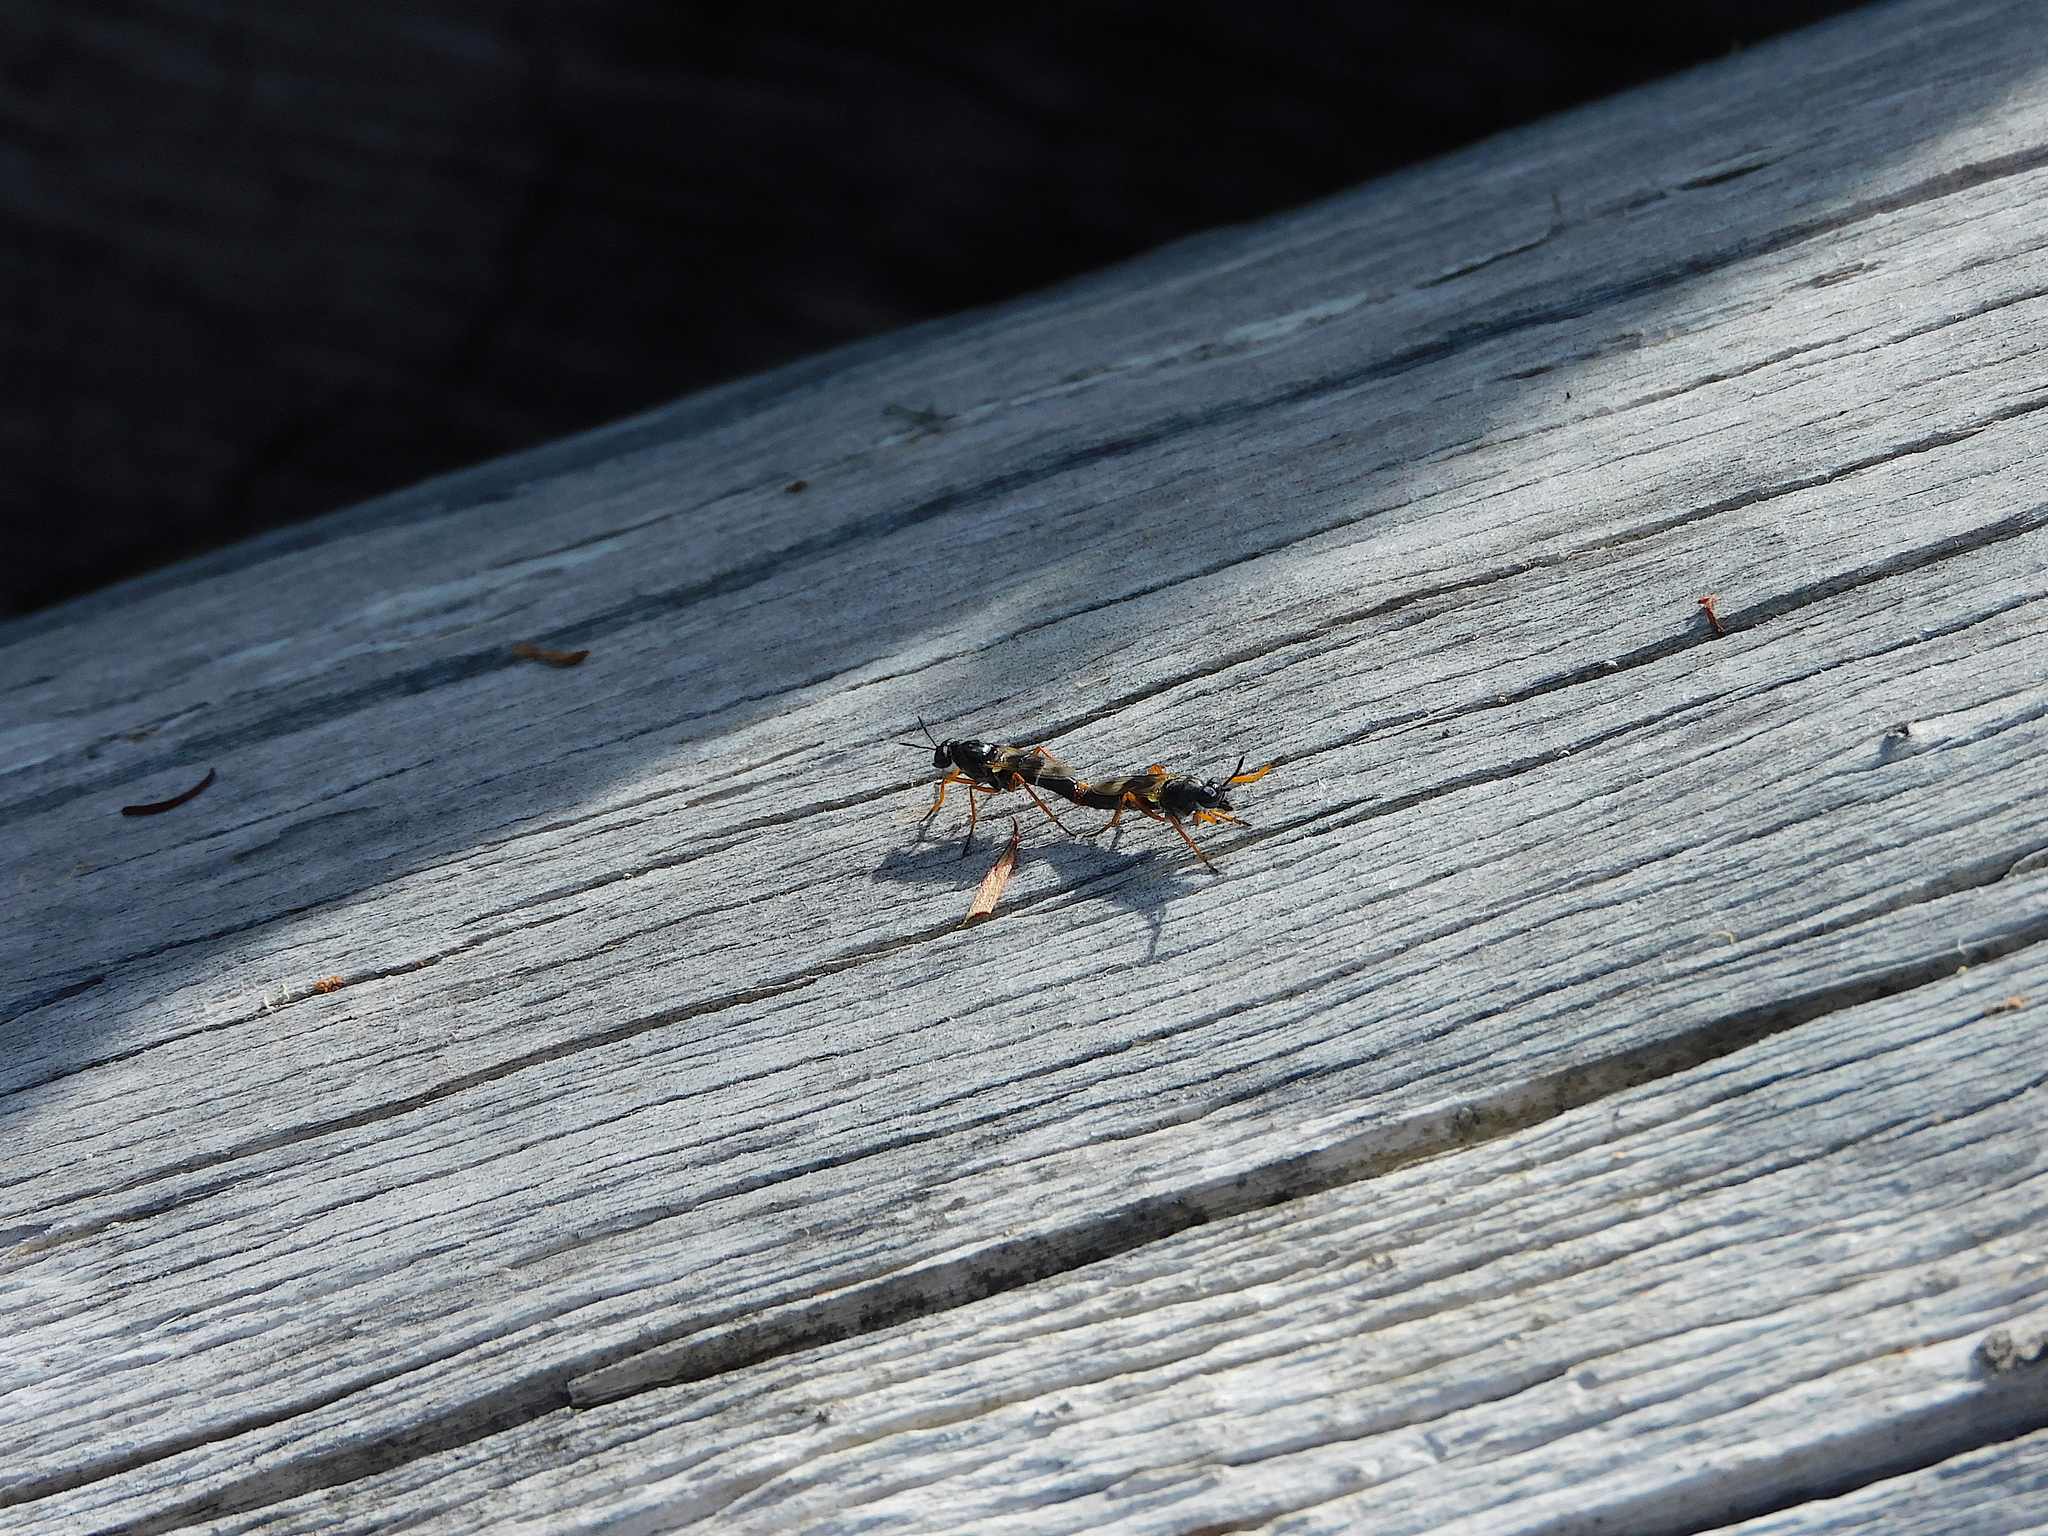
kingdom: Animalia
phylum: Arthropoda
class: Insecta
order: Diptera
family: Therevidae
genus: Phycus
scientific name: Phycus quatiens
